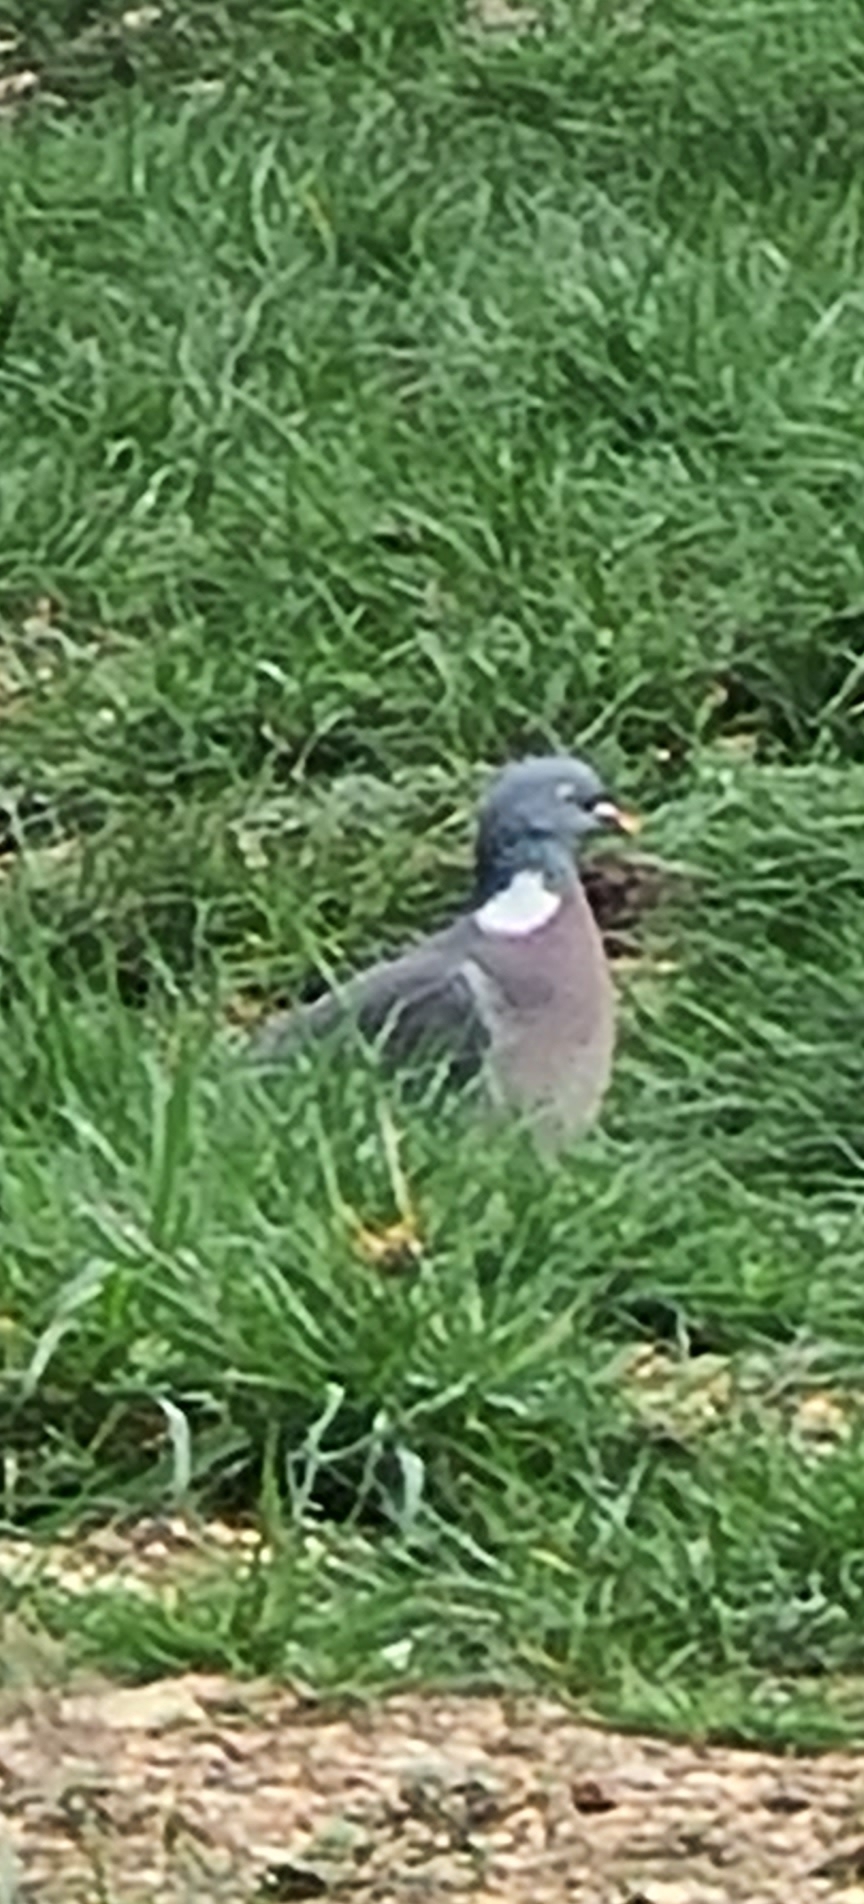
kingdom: Animalia
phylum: Chordata
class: Aves
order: Columbiformes
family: Columbidae
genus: Columba
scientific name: Columba palumbus
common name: Common wood pigeon
